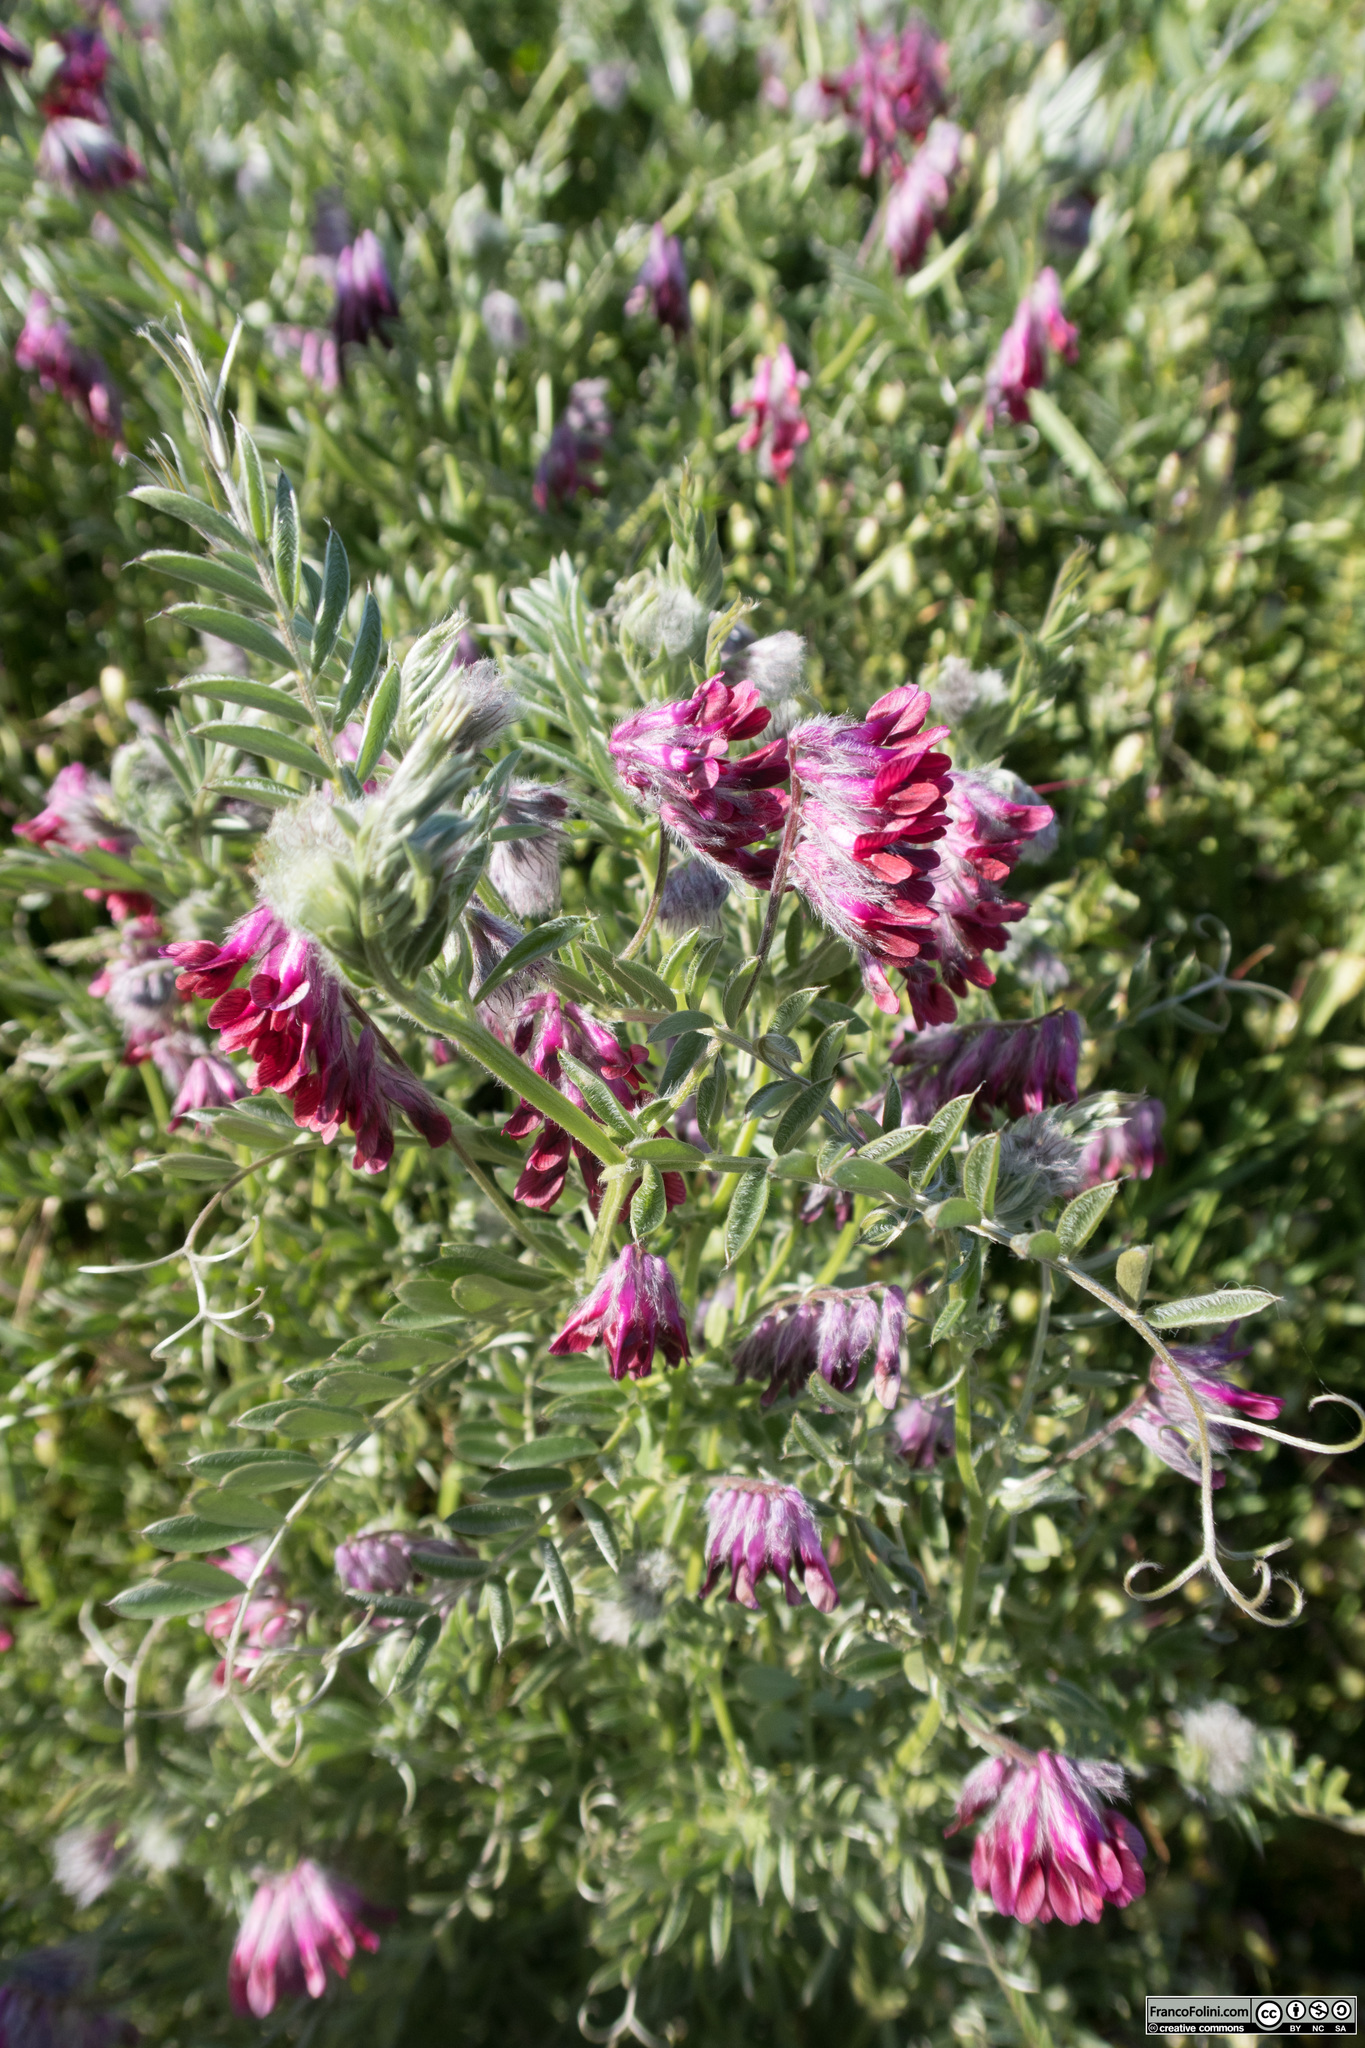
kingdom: Plantae
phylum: Tracheophyta
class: Magnoliopsida
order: Fabales
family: Fabaceae
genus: Vicia
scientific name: Vicia benghalensis
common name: Purple vetch
